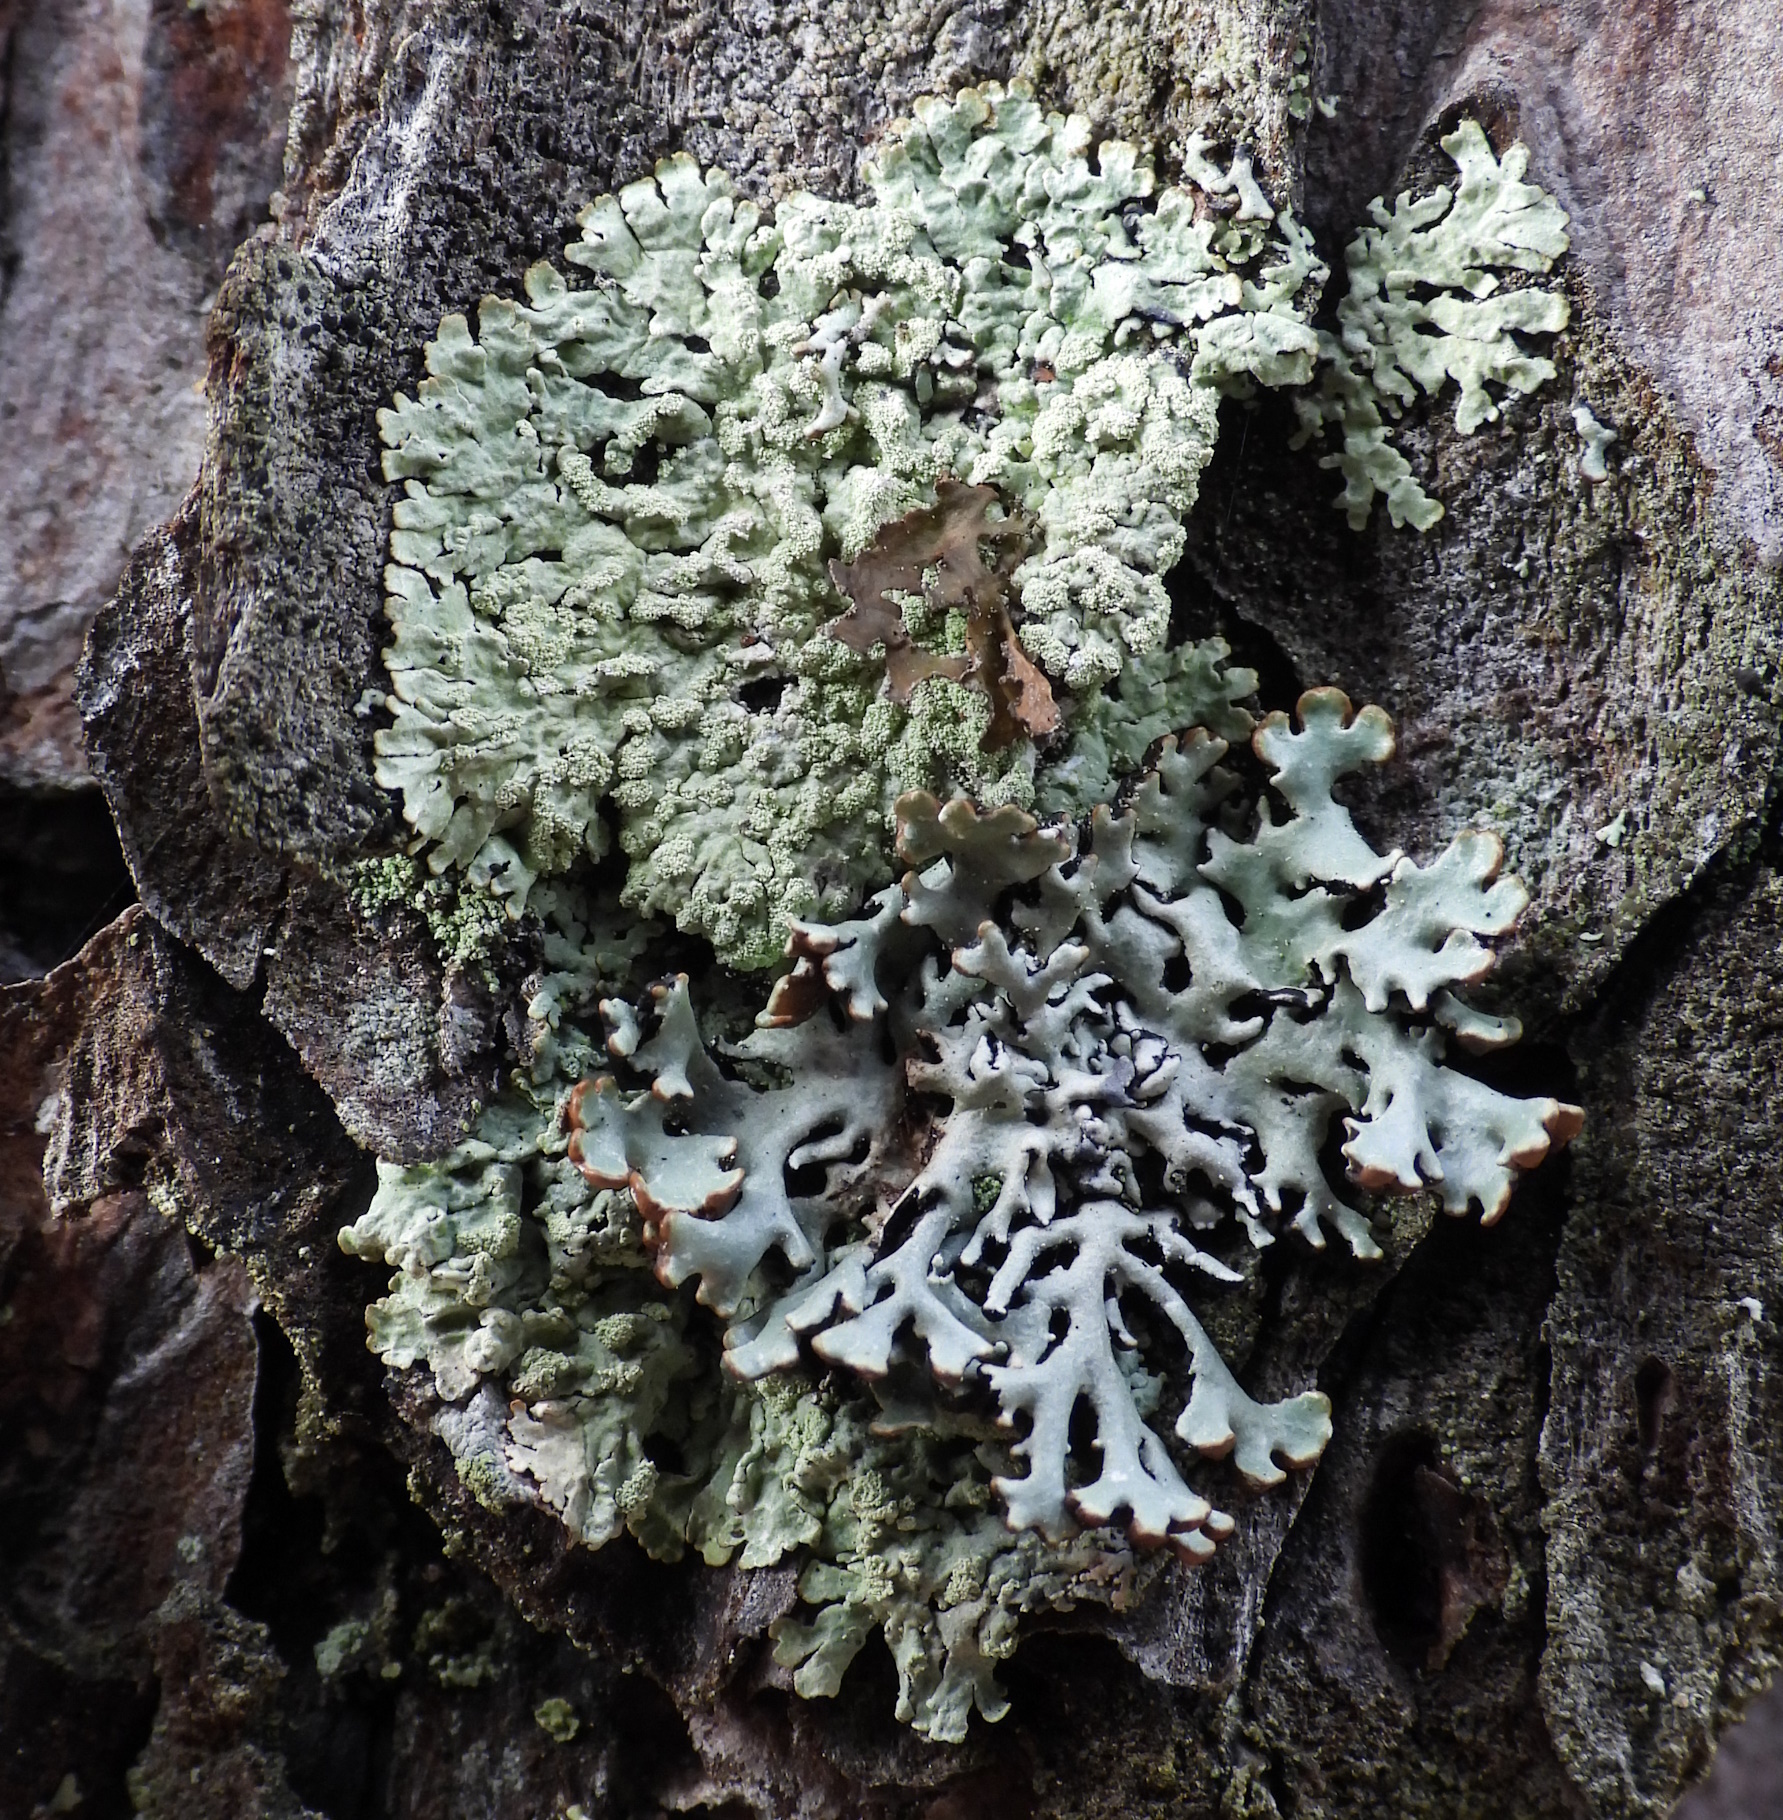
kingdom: Fungi
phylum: Ascomycota
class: Lecanoromycetes
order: Lecanorales
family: Parmeliaceae
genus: Parmeliopsis
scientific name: Parmeliopsis ambigua
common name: Green starburst lichen
